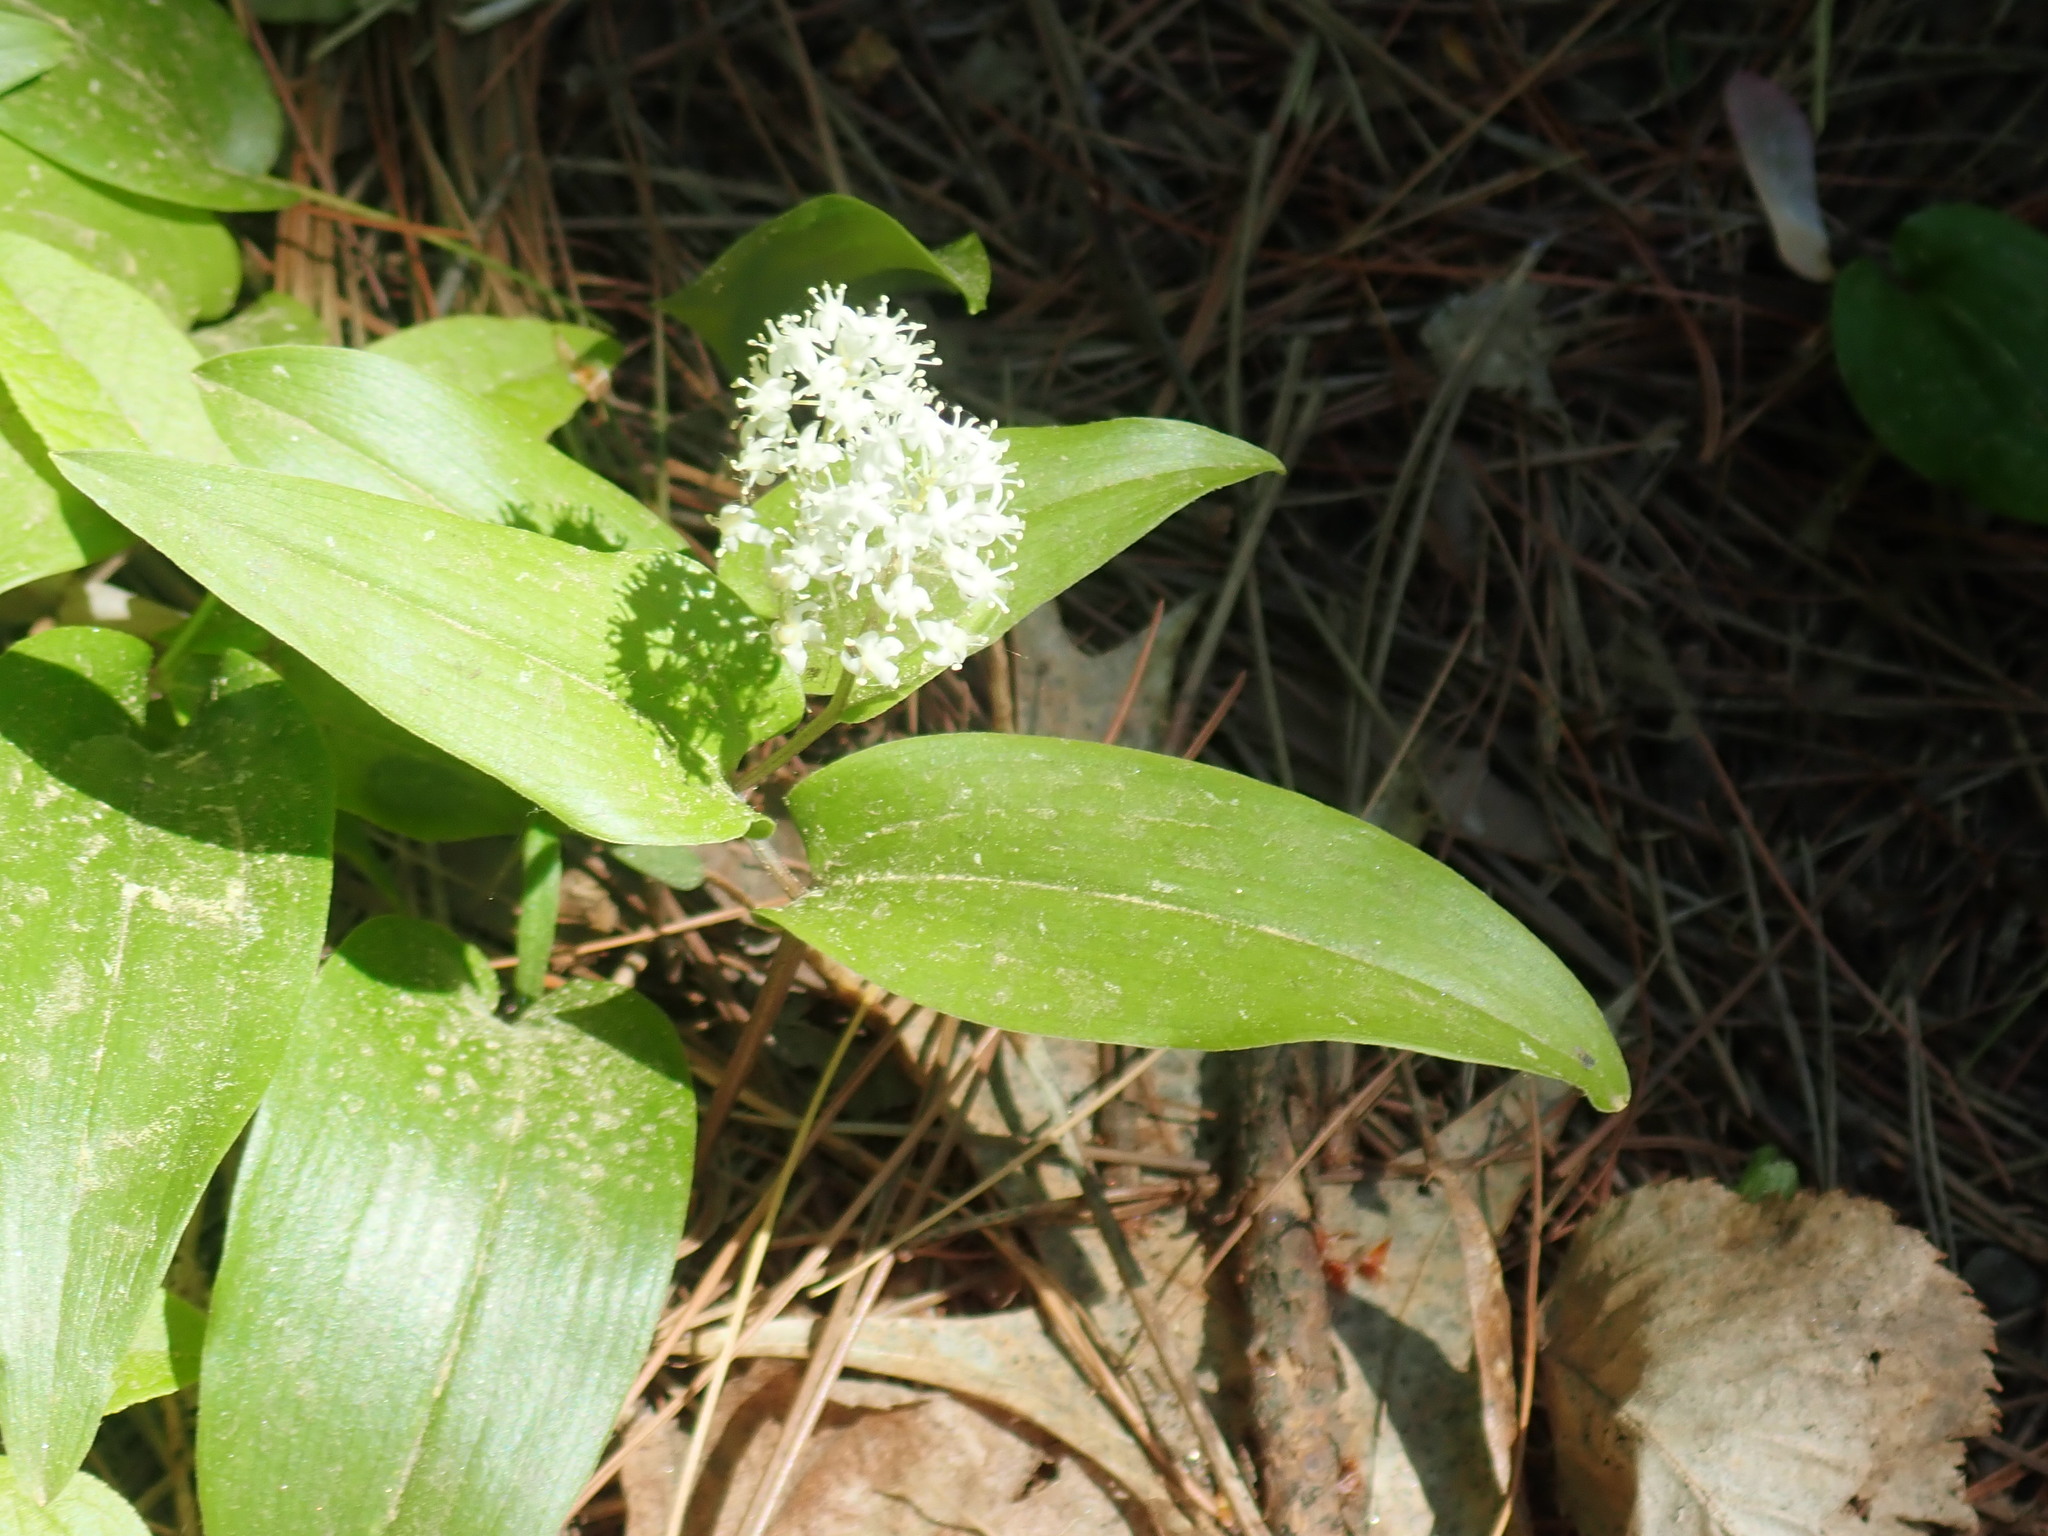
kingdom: Plantae
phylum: Tracheophyta
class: Liliopsida
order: Asparagales
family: Asparagaceae
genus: Maianthemum
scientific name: Maianthemum canadense
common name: False lily-of-the-valley
